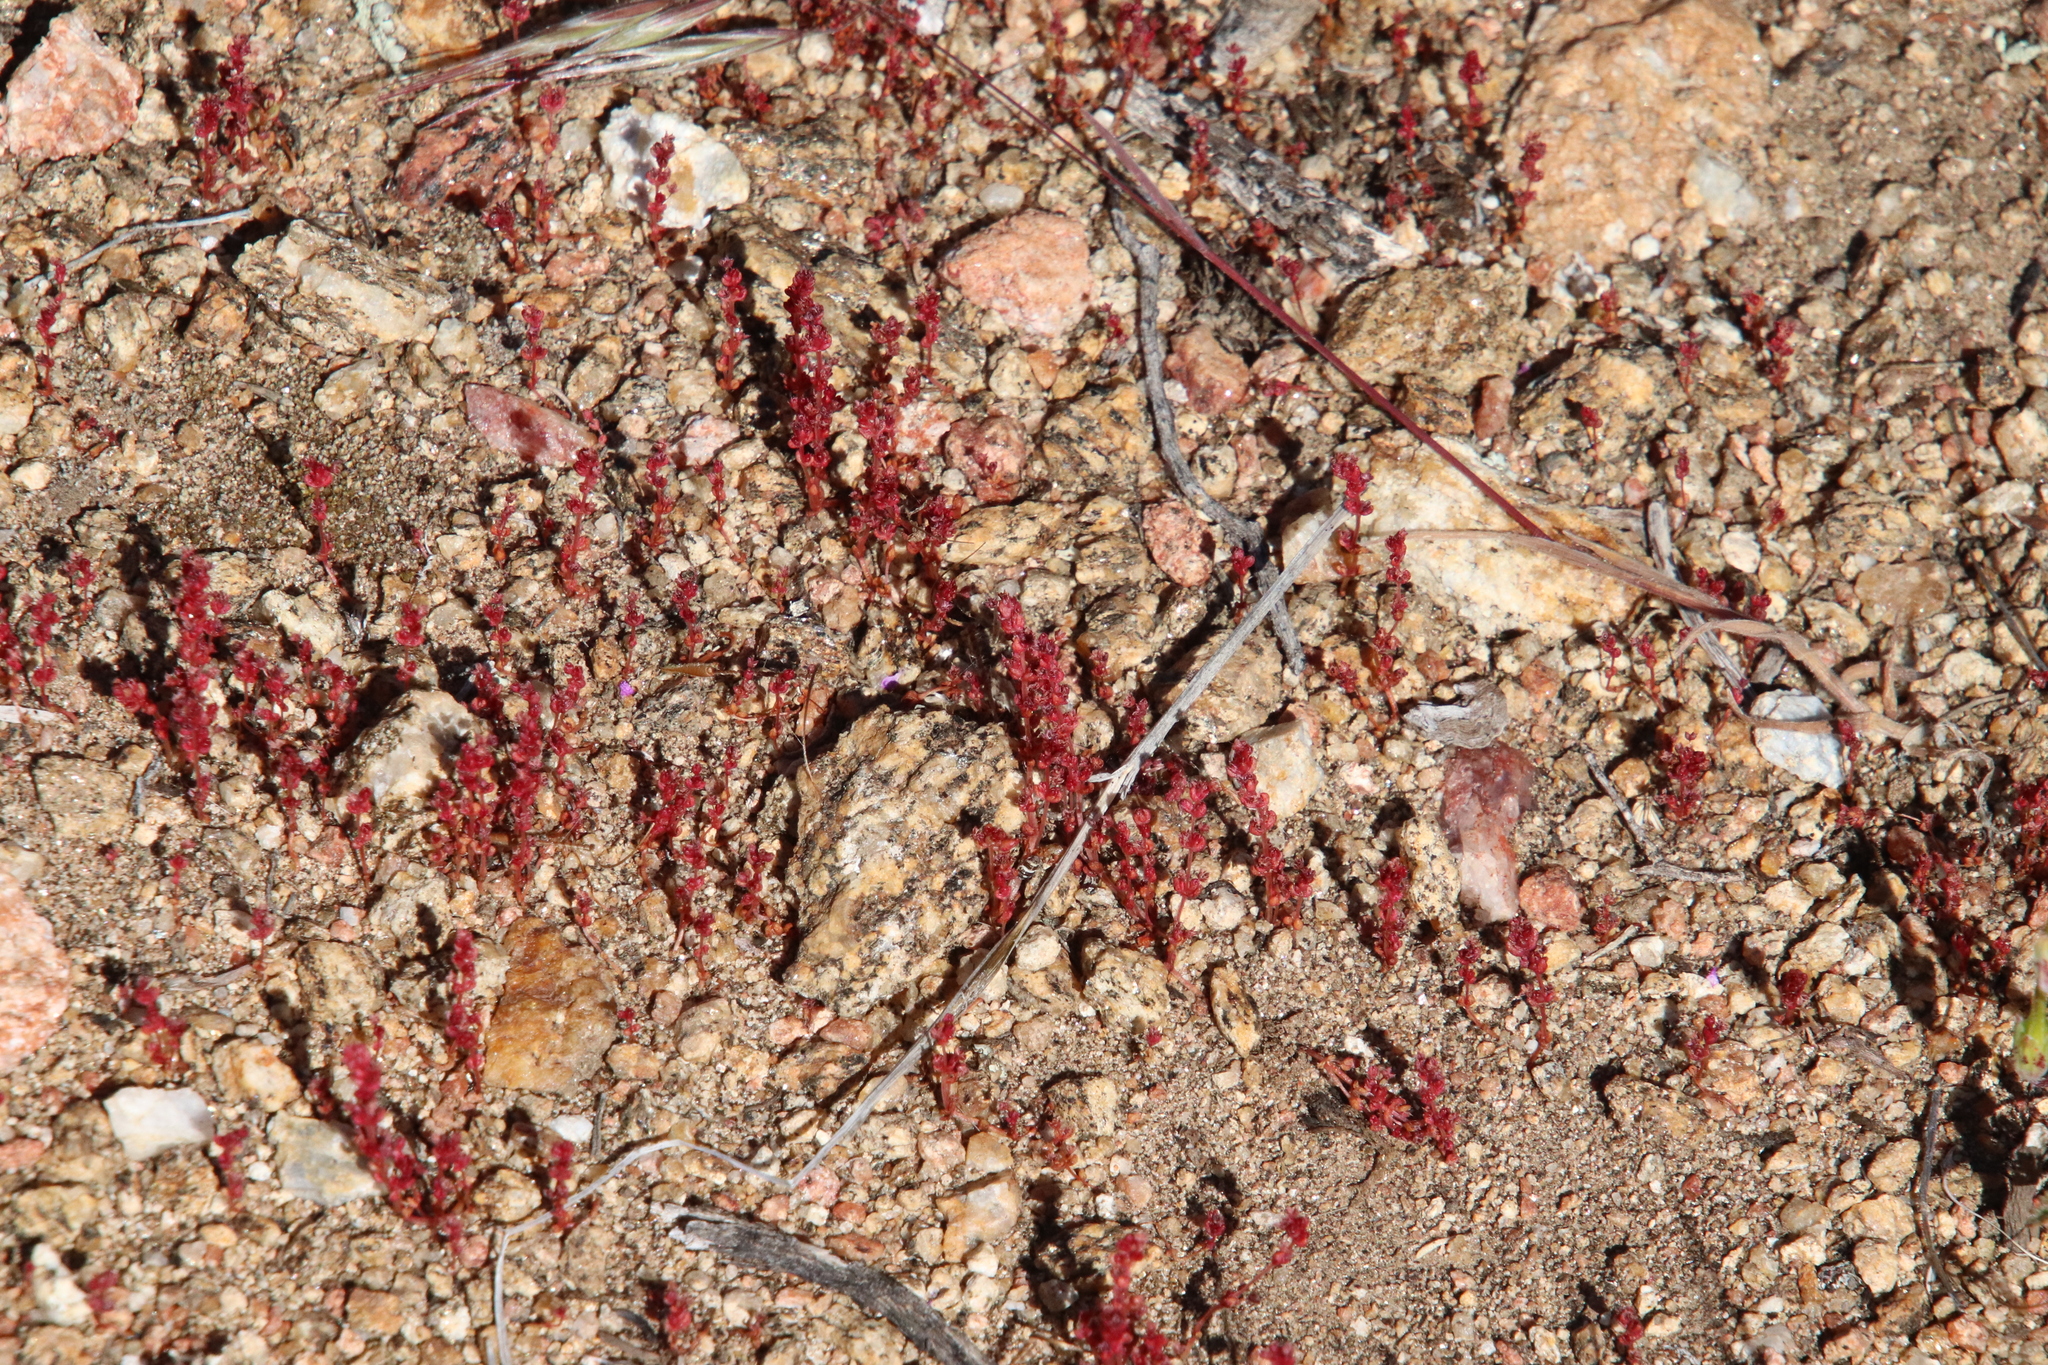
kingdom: Plantae
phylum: Tracheophyta
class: Magnoliopsida
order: Saxifragales
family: Crassulaceae
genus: Crassula
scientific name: Crassula connata
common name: Erect pygmyweed
